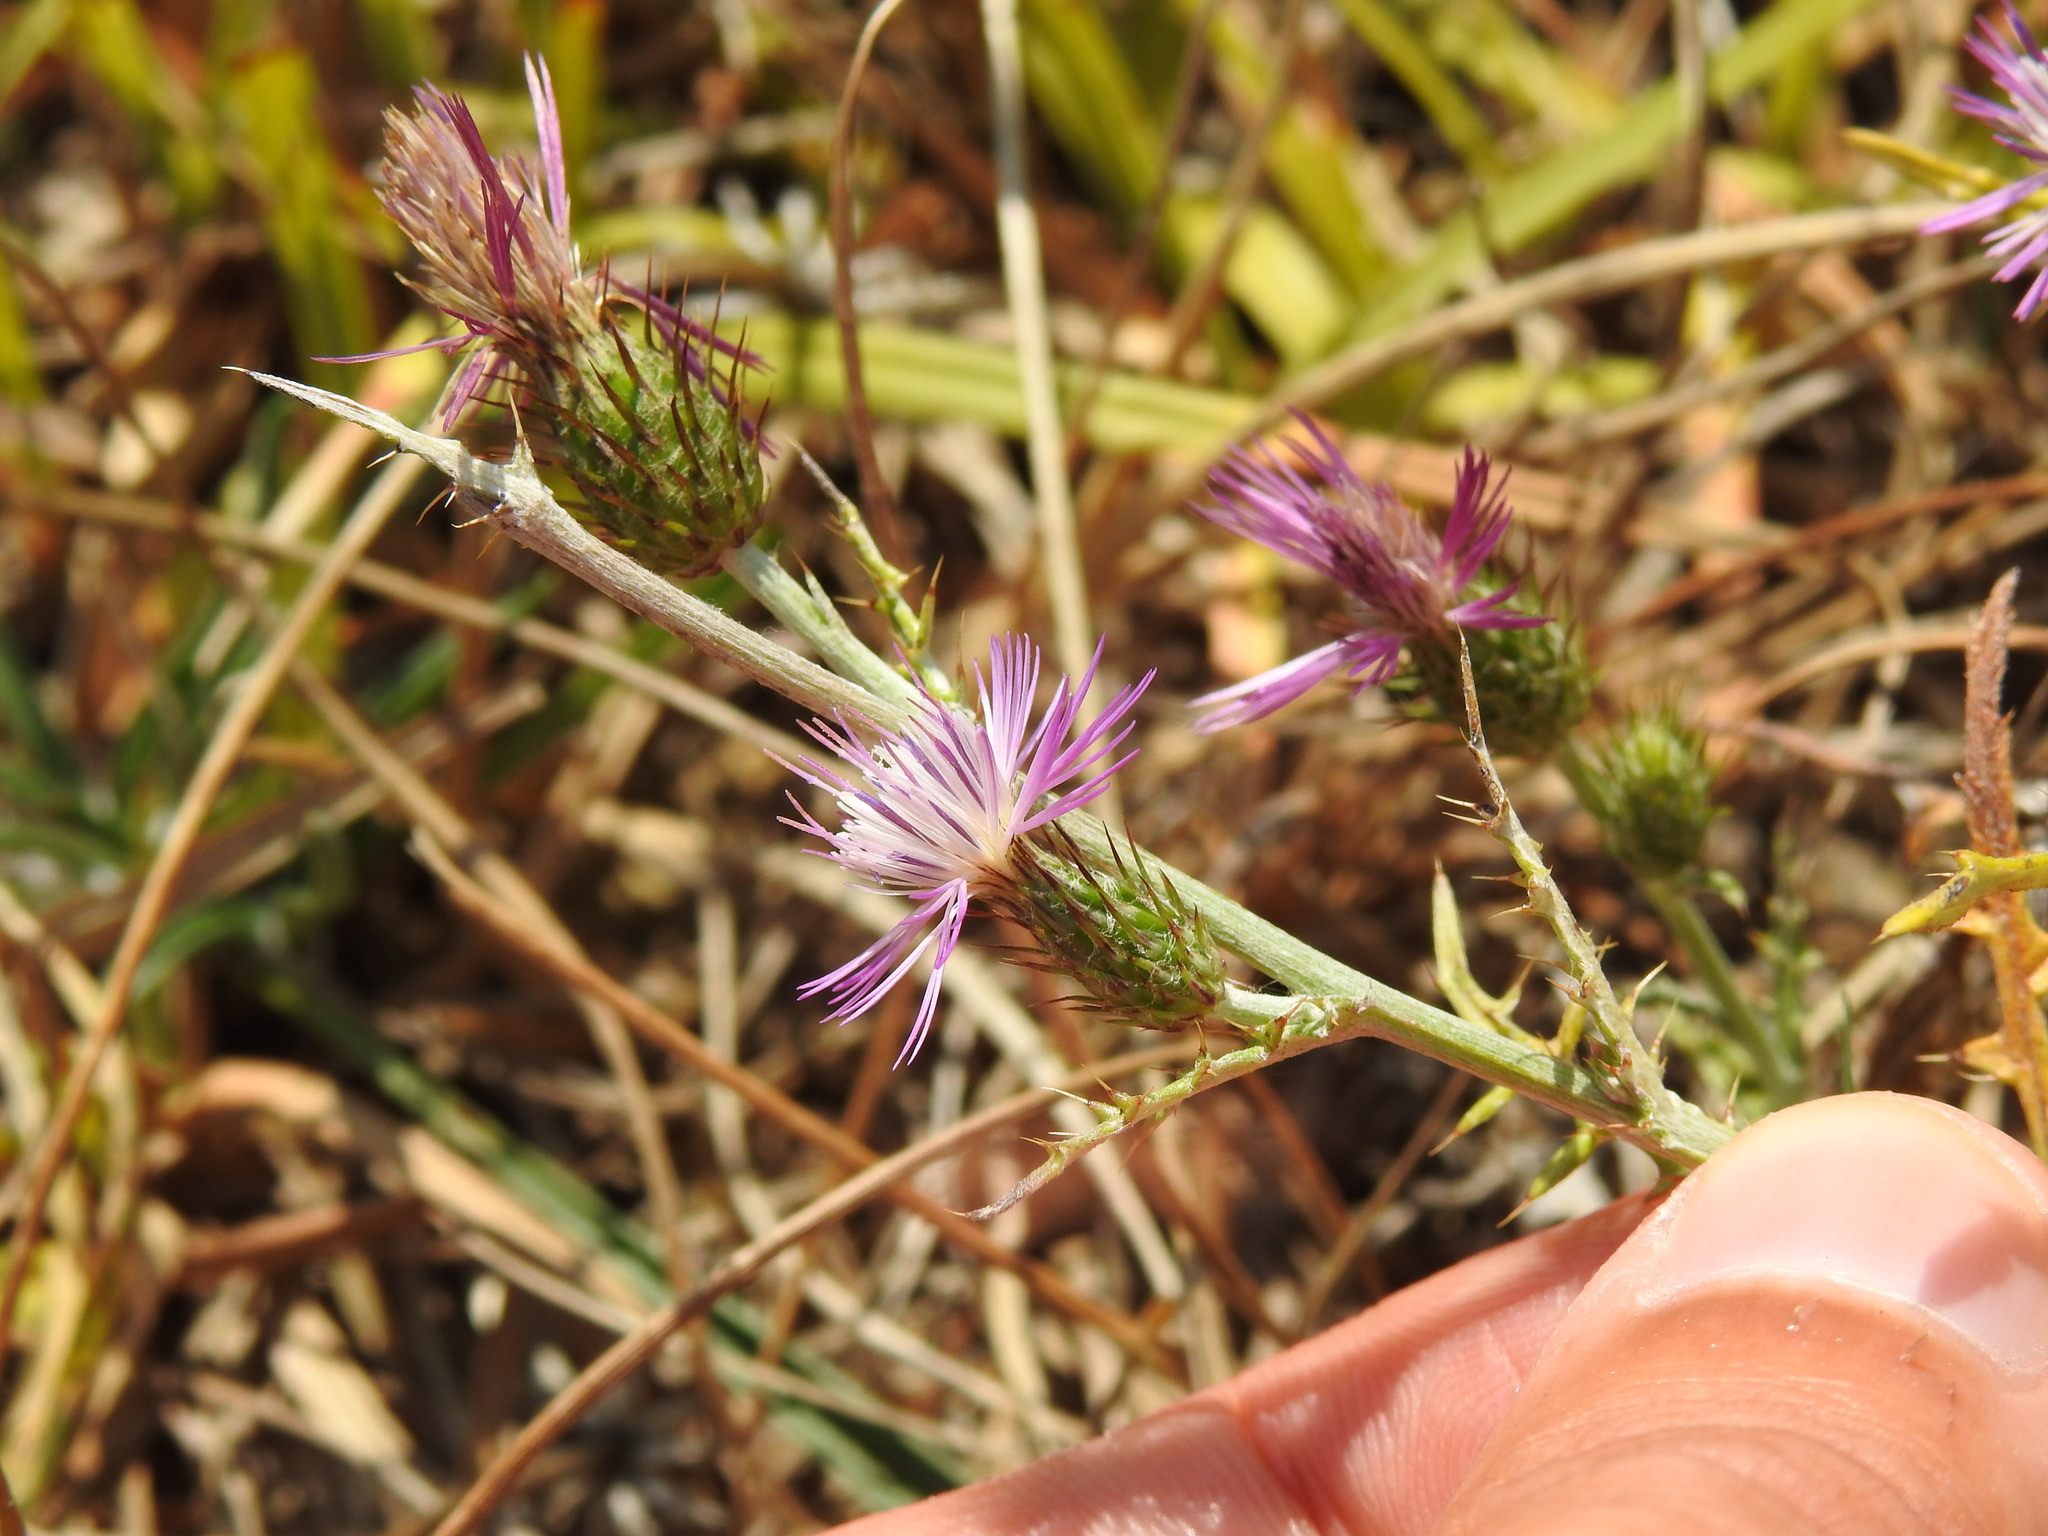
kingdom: Plantae
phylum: Tracheophyta
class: Magnoliopsida
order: Asterales
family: Asteraceae
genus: Galactites
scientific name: Galactites tomentosa
